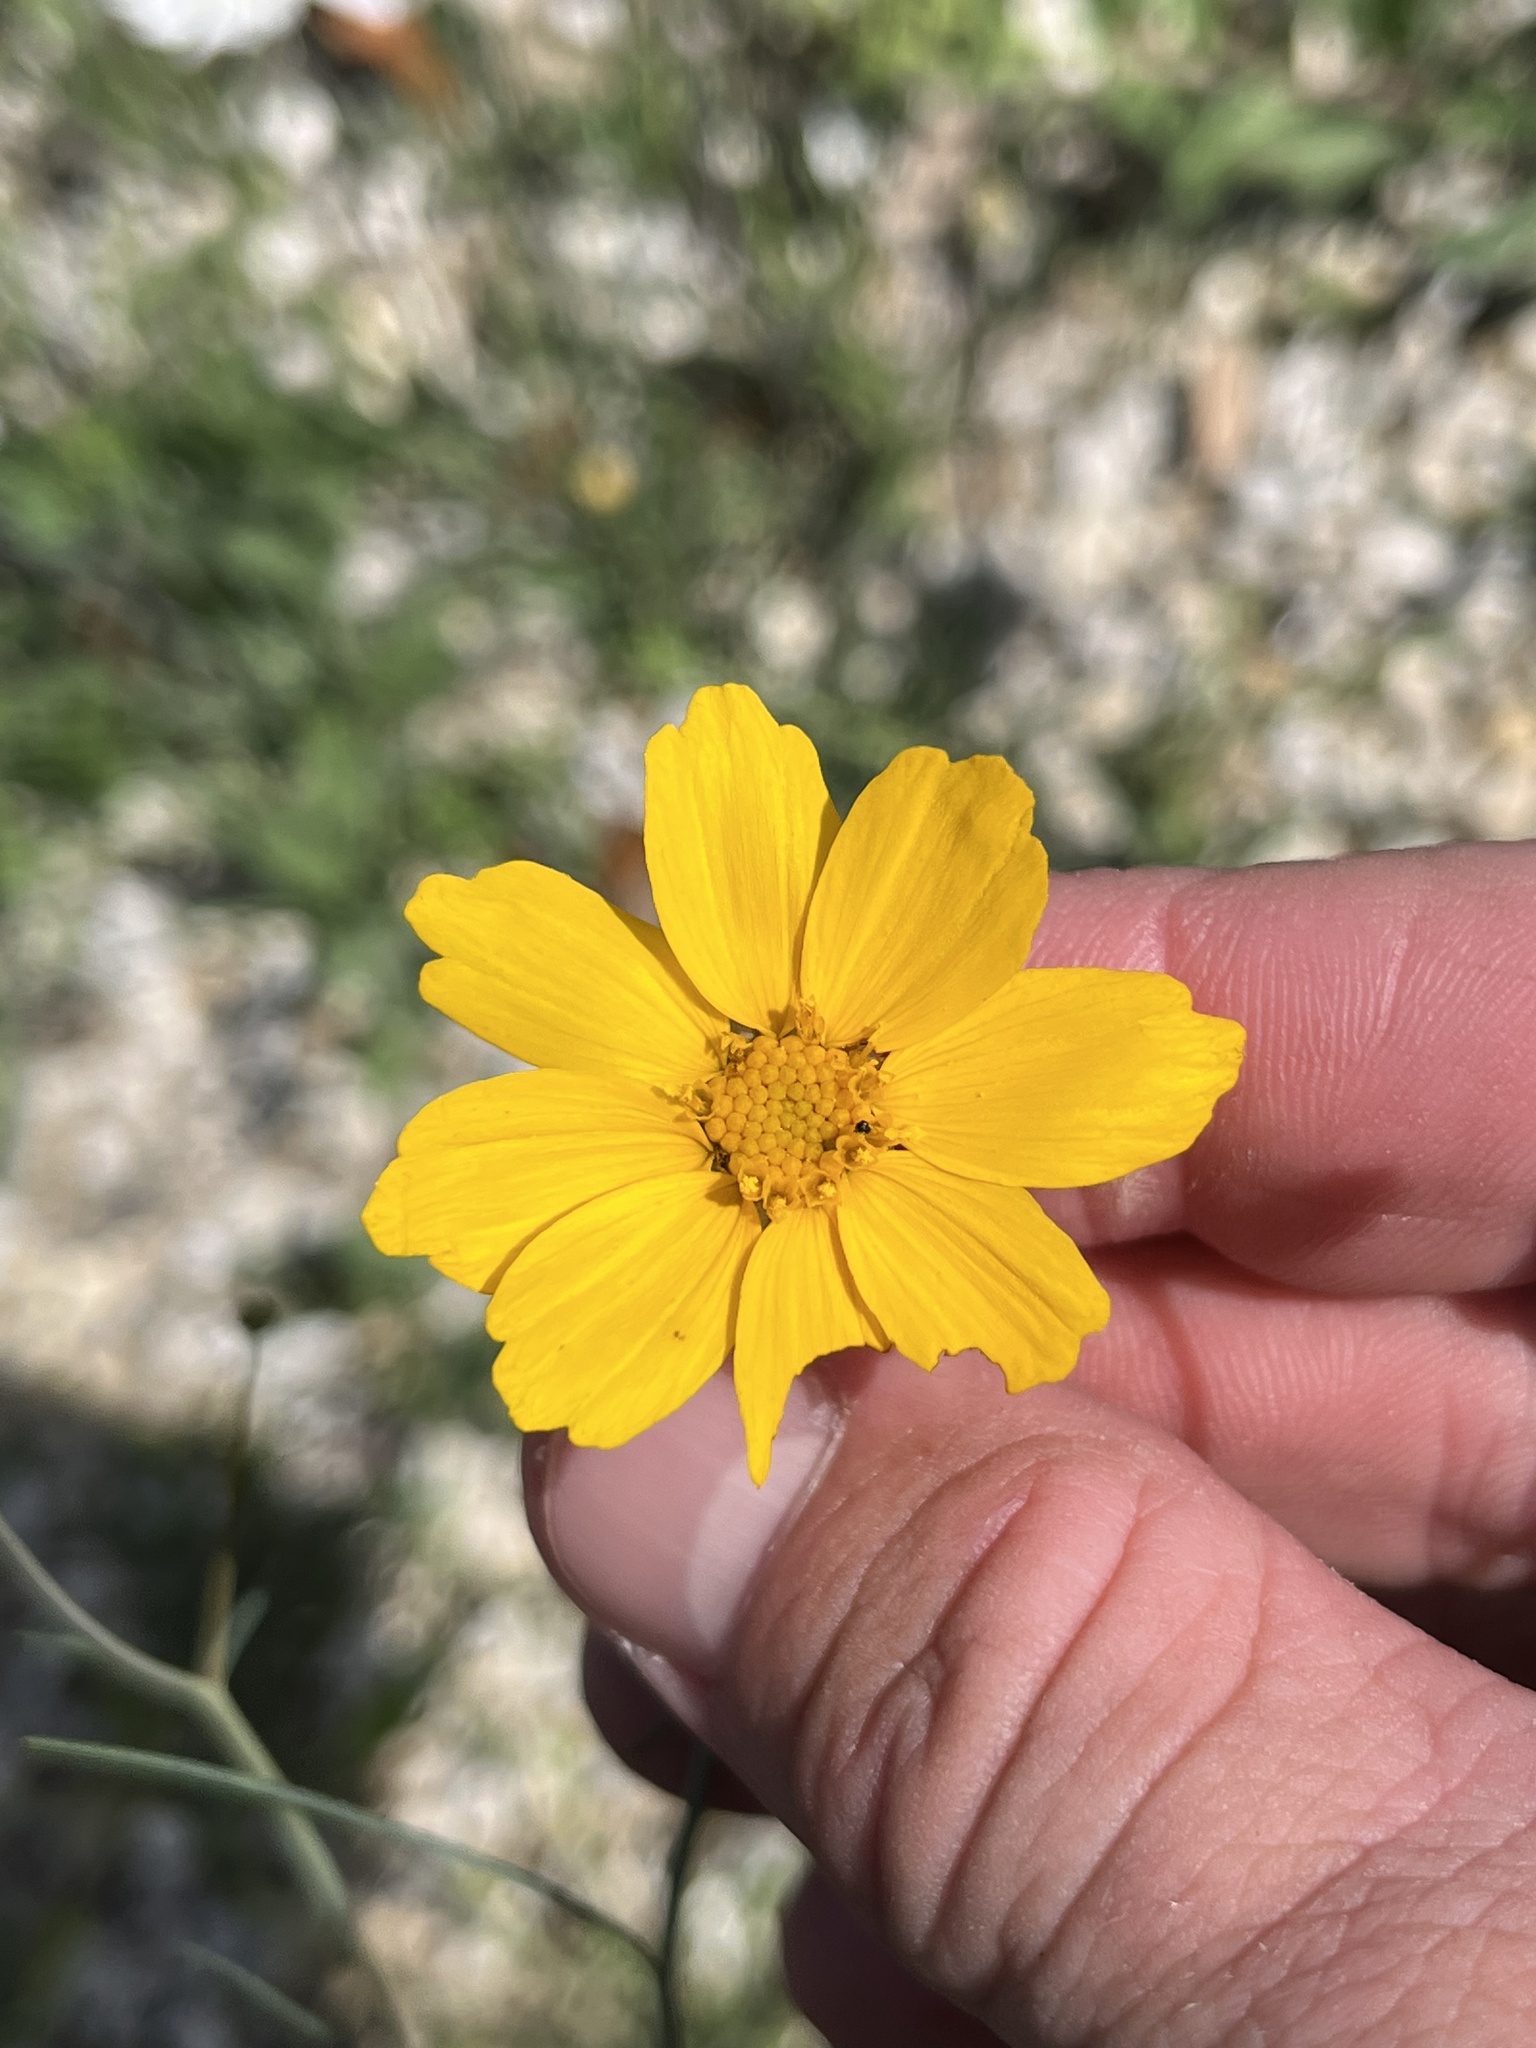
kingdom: Plantae
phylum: Tracheophyta
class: Magnoliopsida
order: Asterales
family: Asteraceae
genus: Thelesperma
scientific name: Thelesperma simplicifolium
